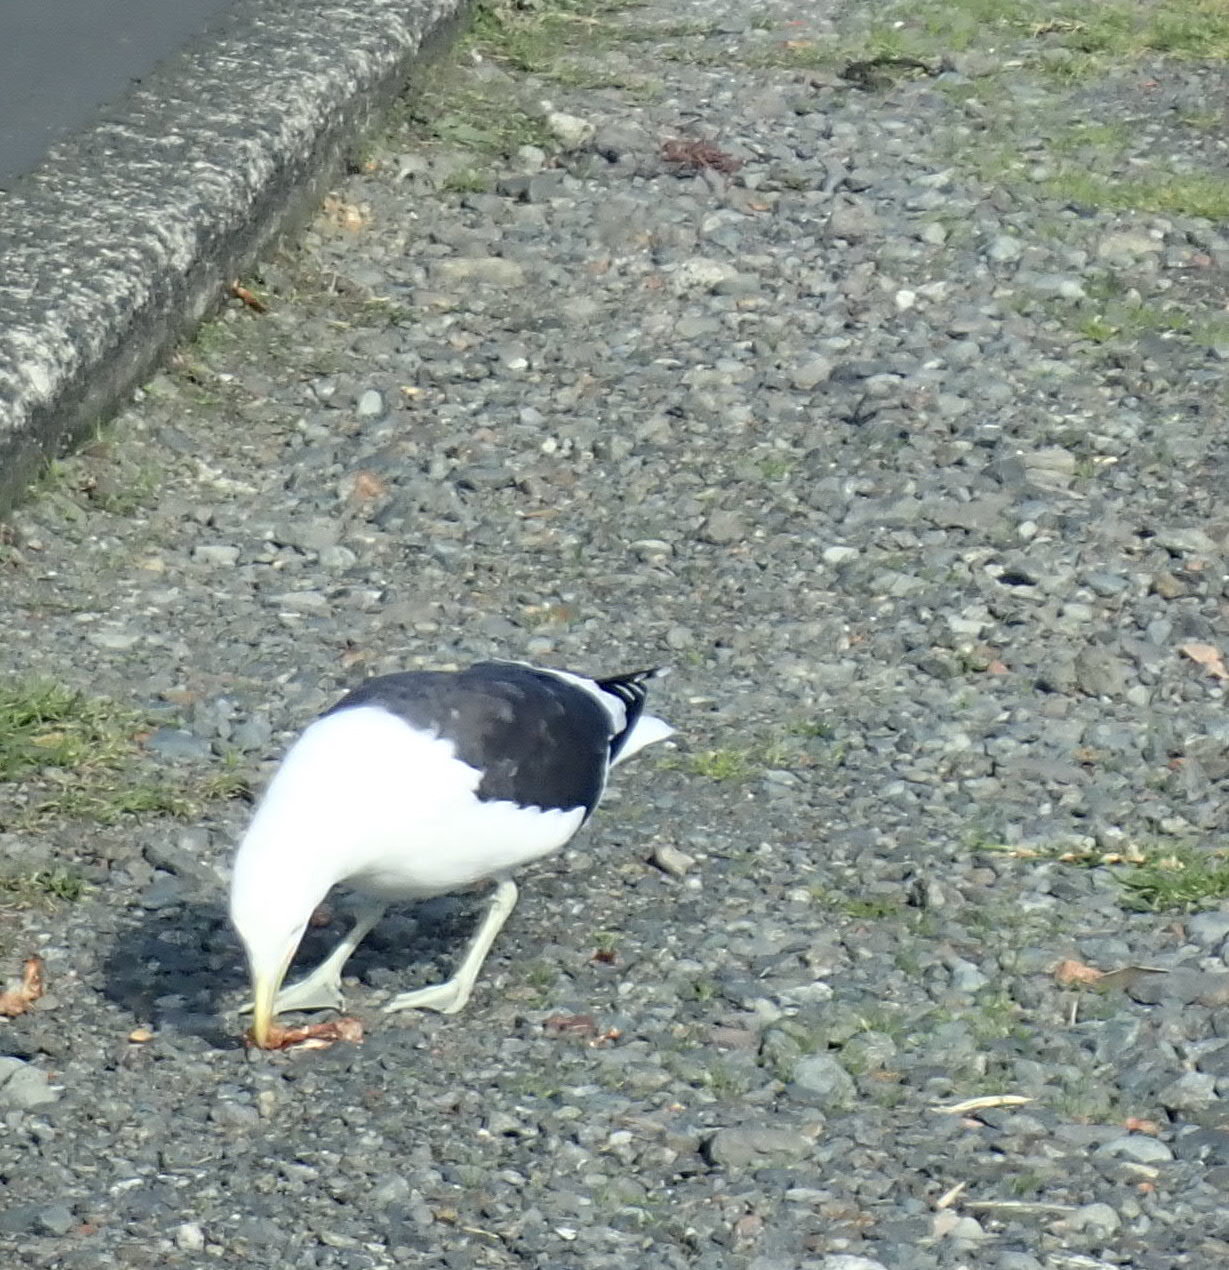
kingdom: Animalia
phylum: Chordata
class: Aves
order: Charadriiformes
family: Laridae
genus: Larus
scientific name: Larus dominicanus
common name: Kelp gull
